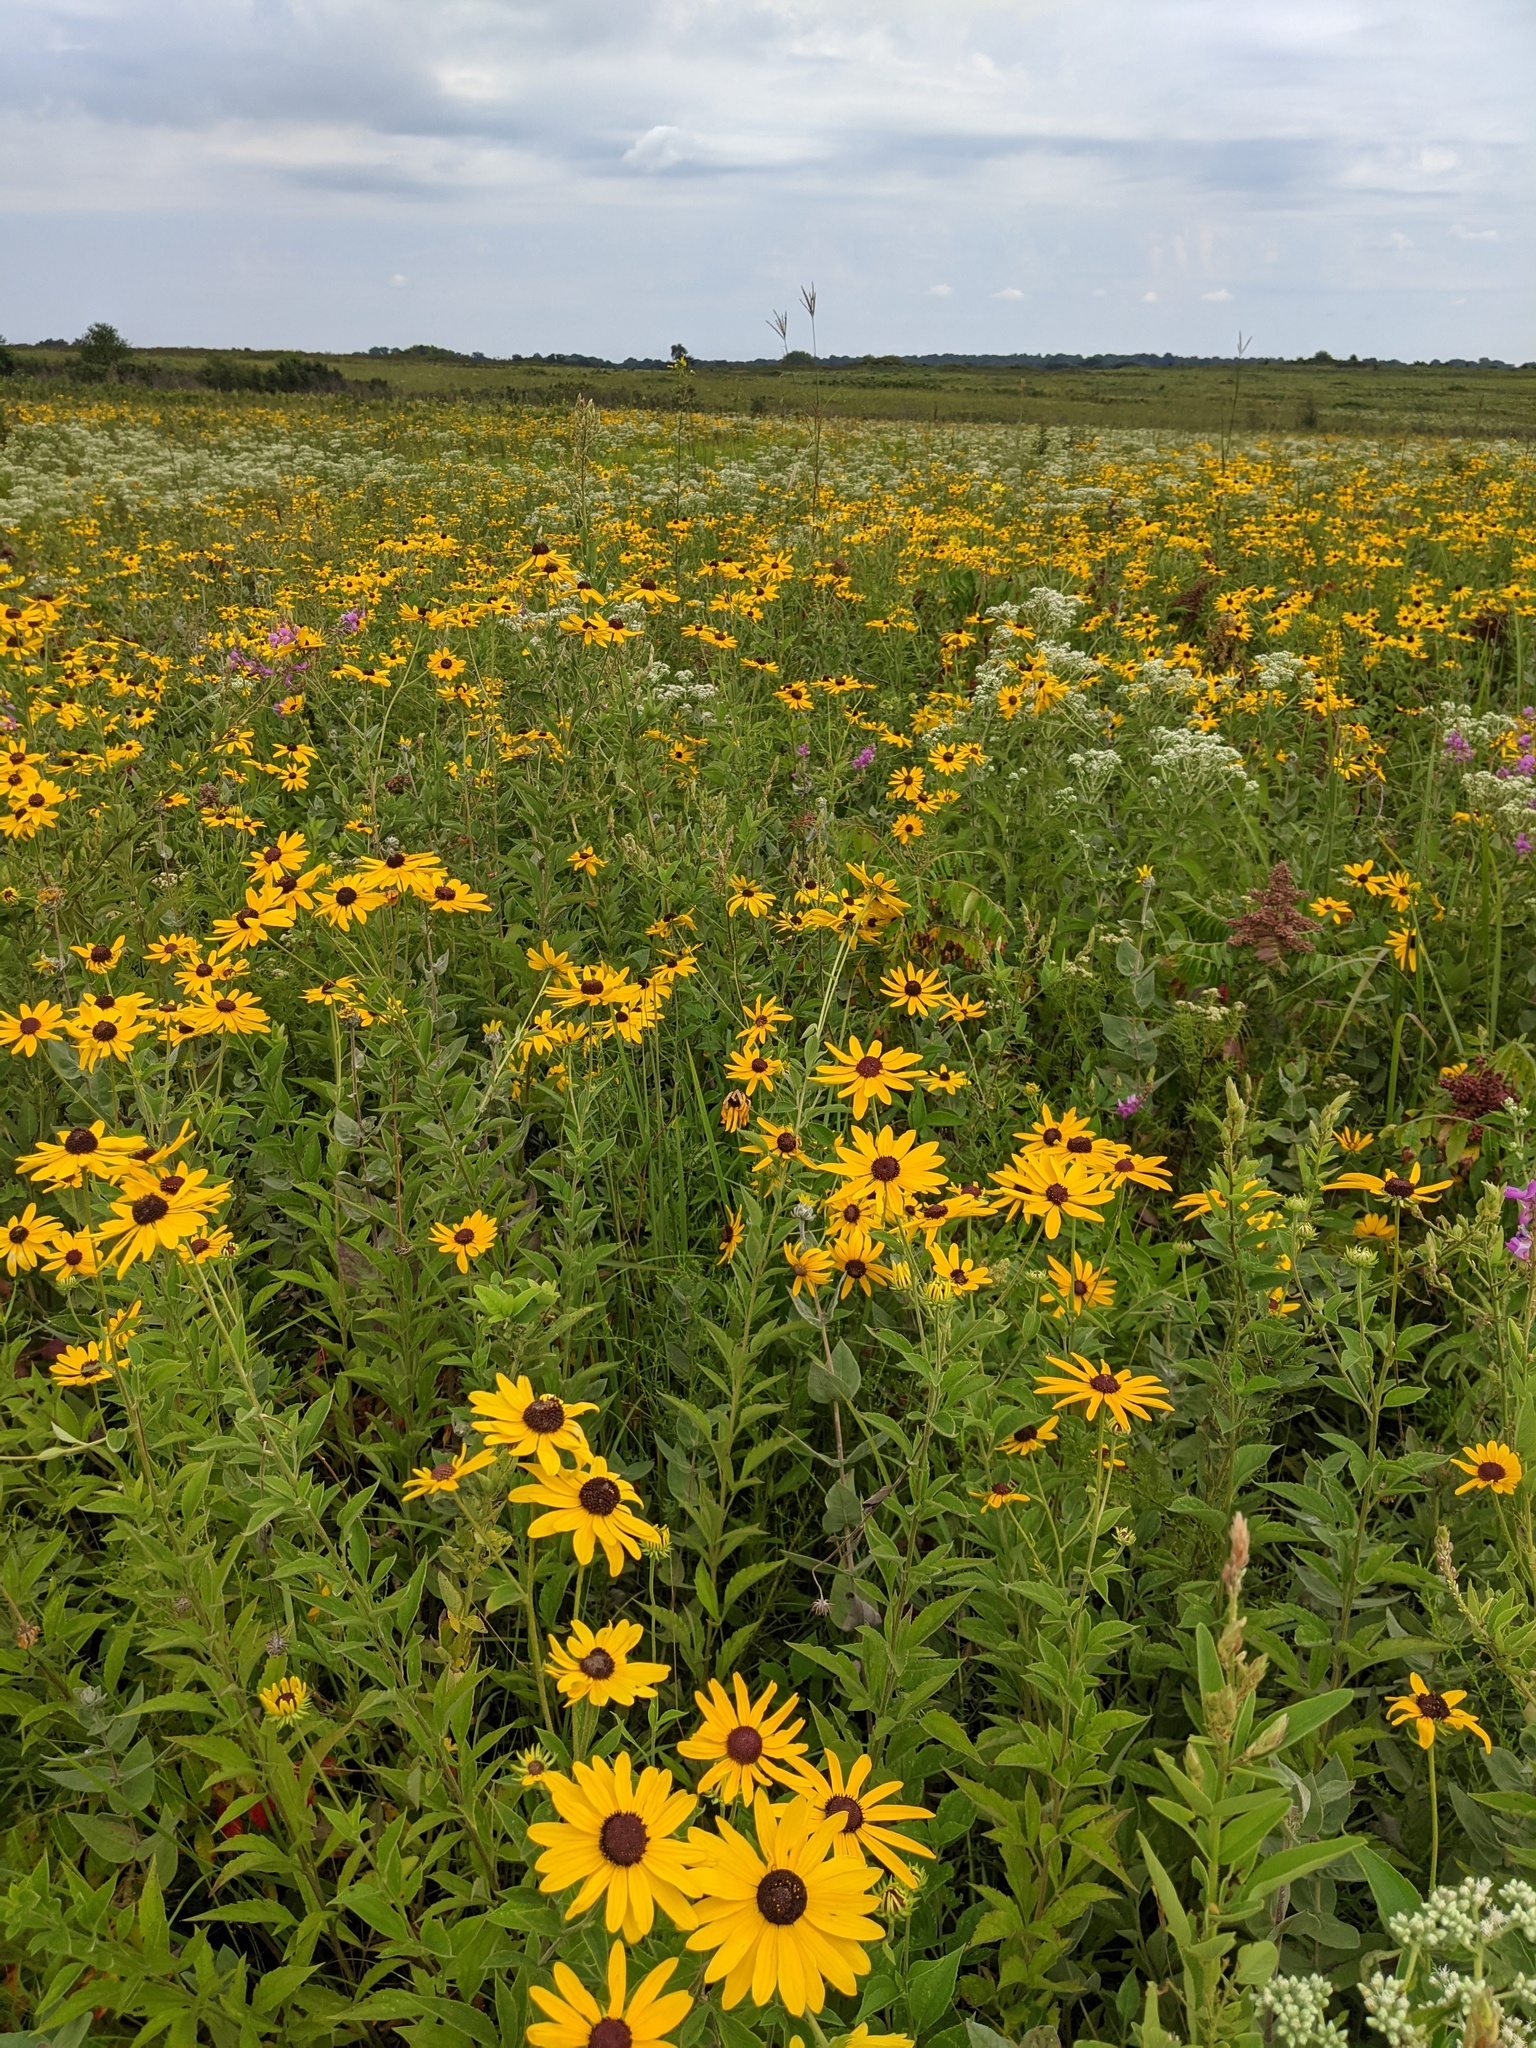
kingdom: Plantae
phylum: Tracheophyta
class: Magnoliopsida
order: Asterales
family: Asteraceae
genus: Rudbeckia
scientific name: Rudbeckia subtomentosa
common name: Sweet coneflower
